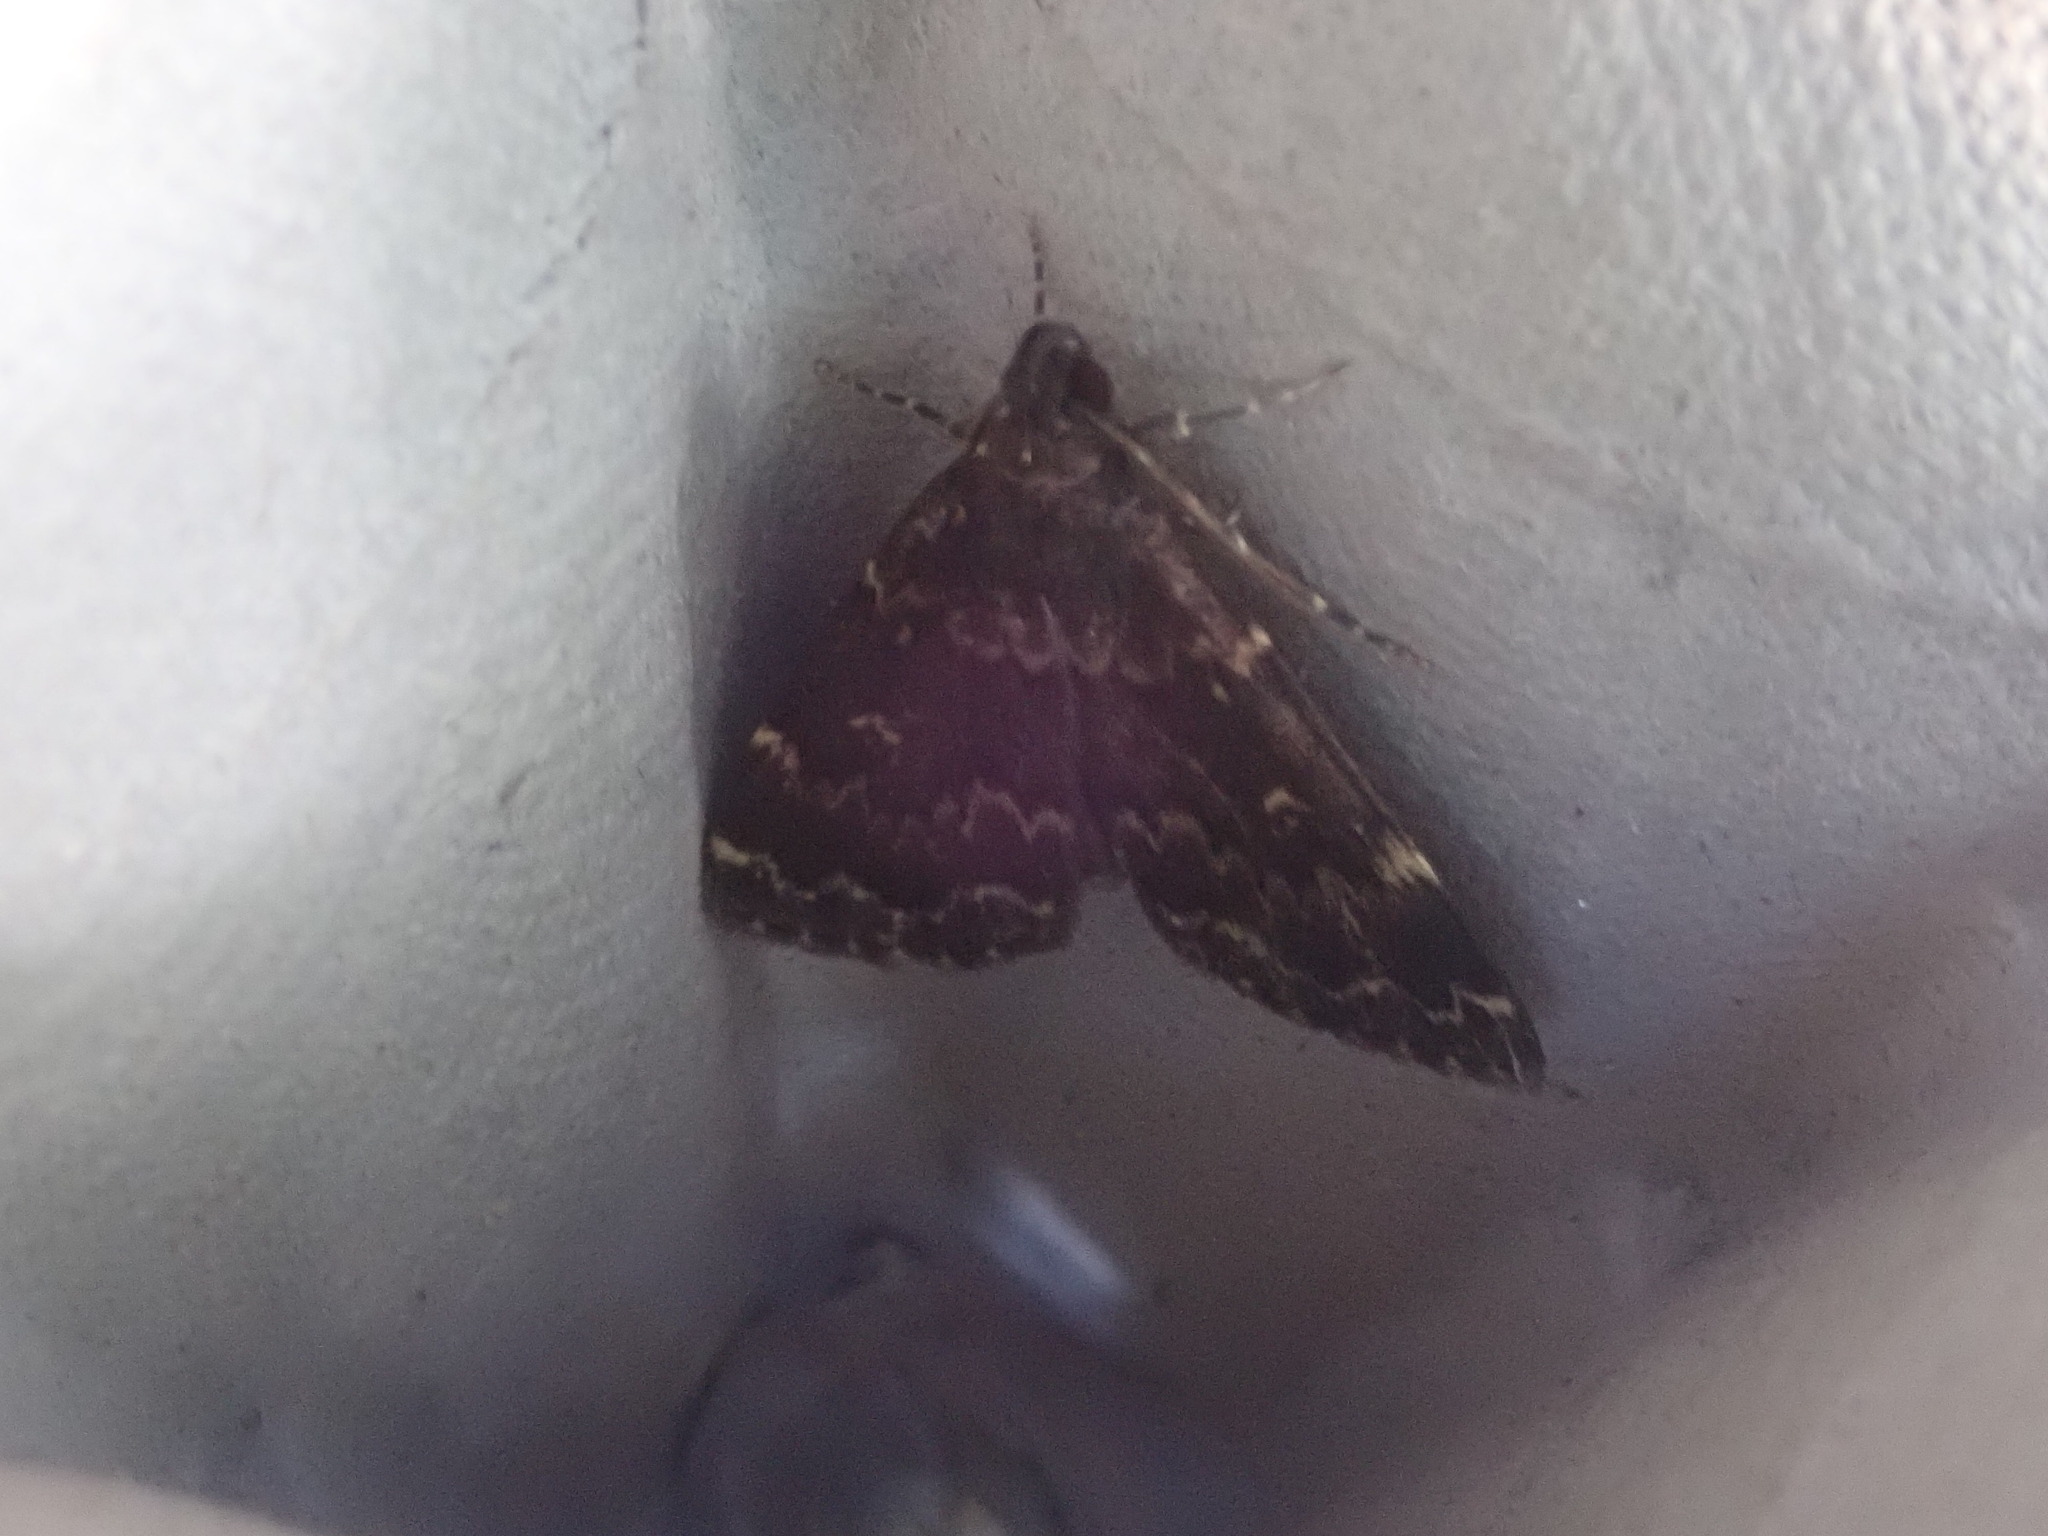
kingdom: Animalia
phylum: Arthropoda
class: Insecta
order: Lepidoptera
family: Erebidae
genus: Idia
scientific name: Idia lubricalis
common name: Twin-striped tabby
